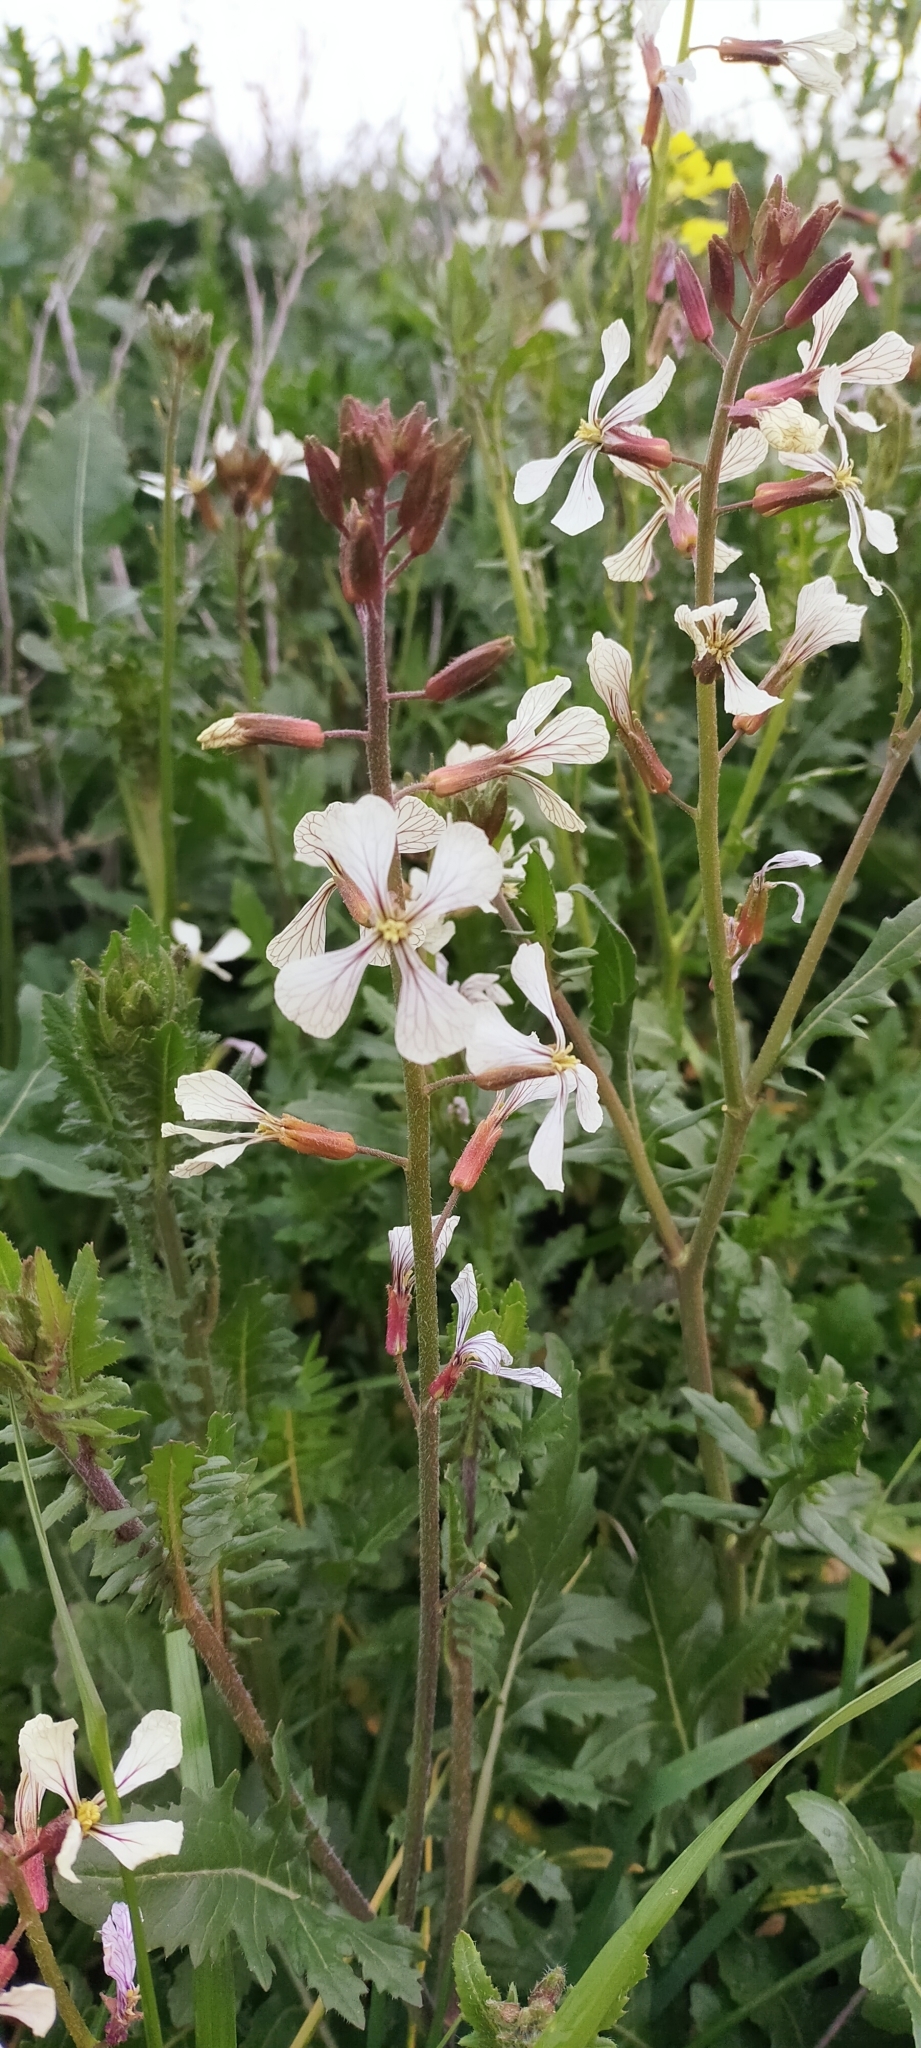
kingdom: Plantae
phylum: Tracheophyta
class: Magnoliopsida
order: Brassicales
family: Brassicaceae
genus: Eruca
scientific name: Eruca vesicaria
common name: Garden rocket
